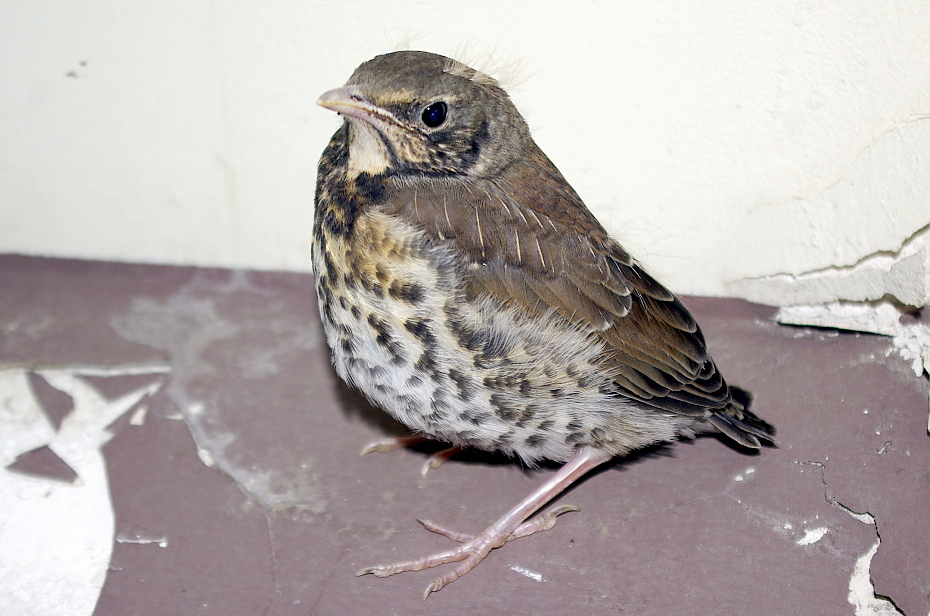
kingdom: Animalia
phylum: Chordata
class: Aves
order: Passeriformes
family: Turdidae
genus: Turdus
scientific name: Turdus pilaris
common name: Fieldfare
